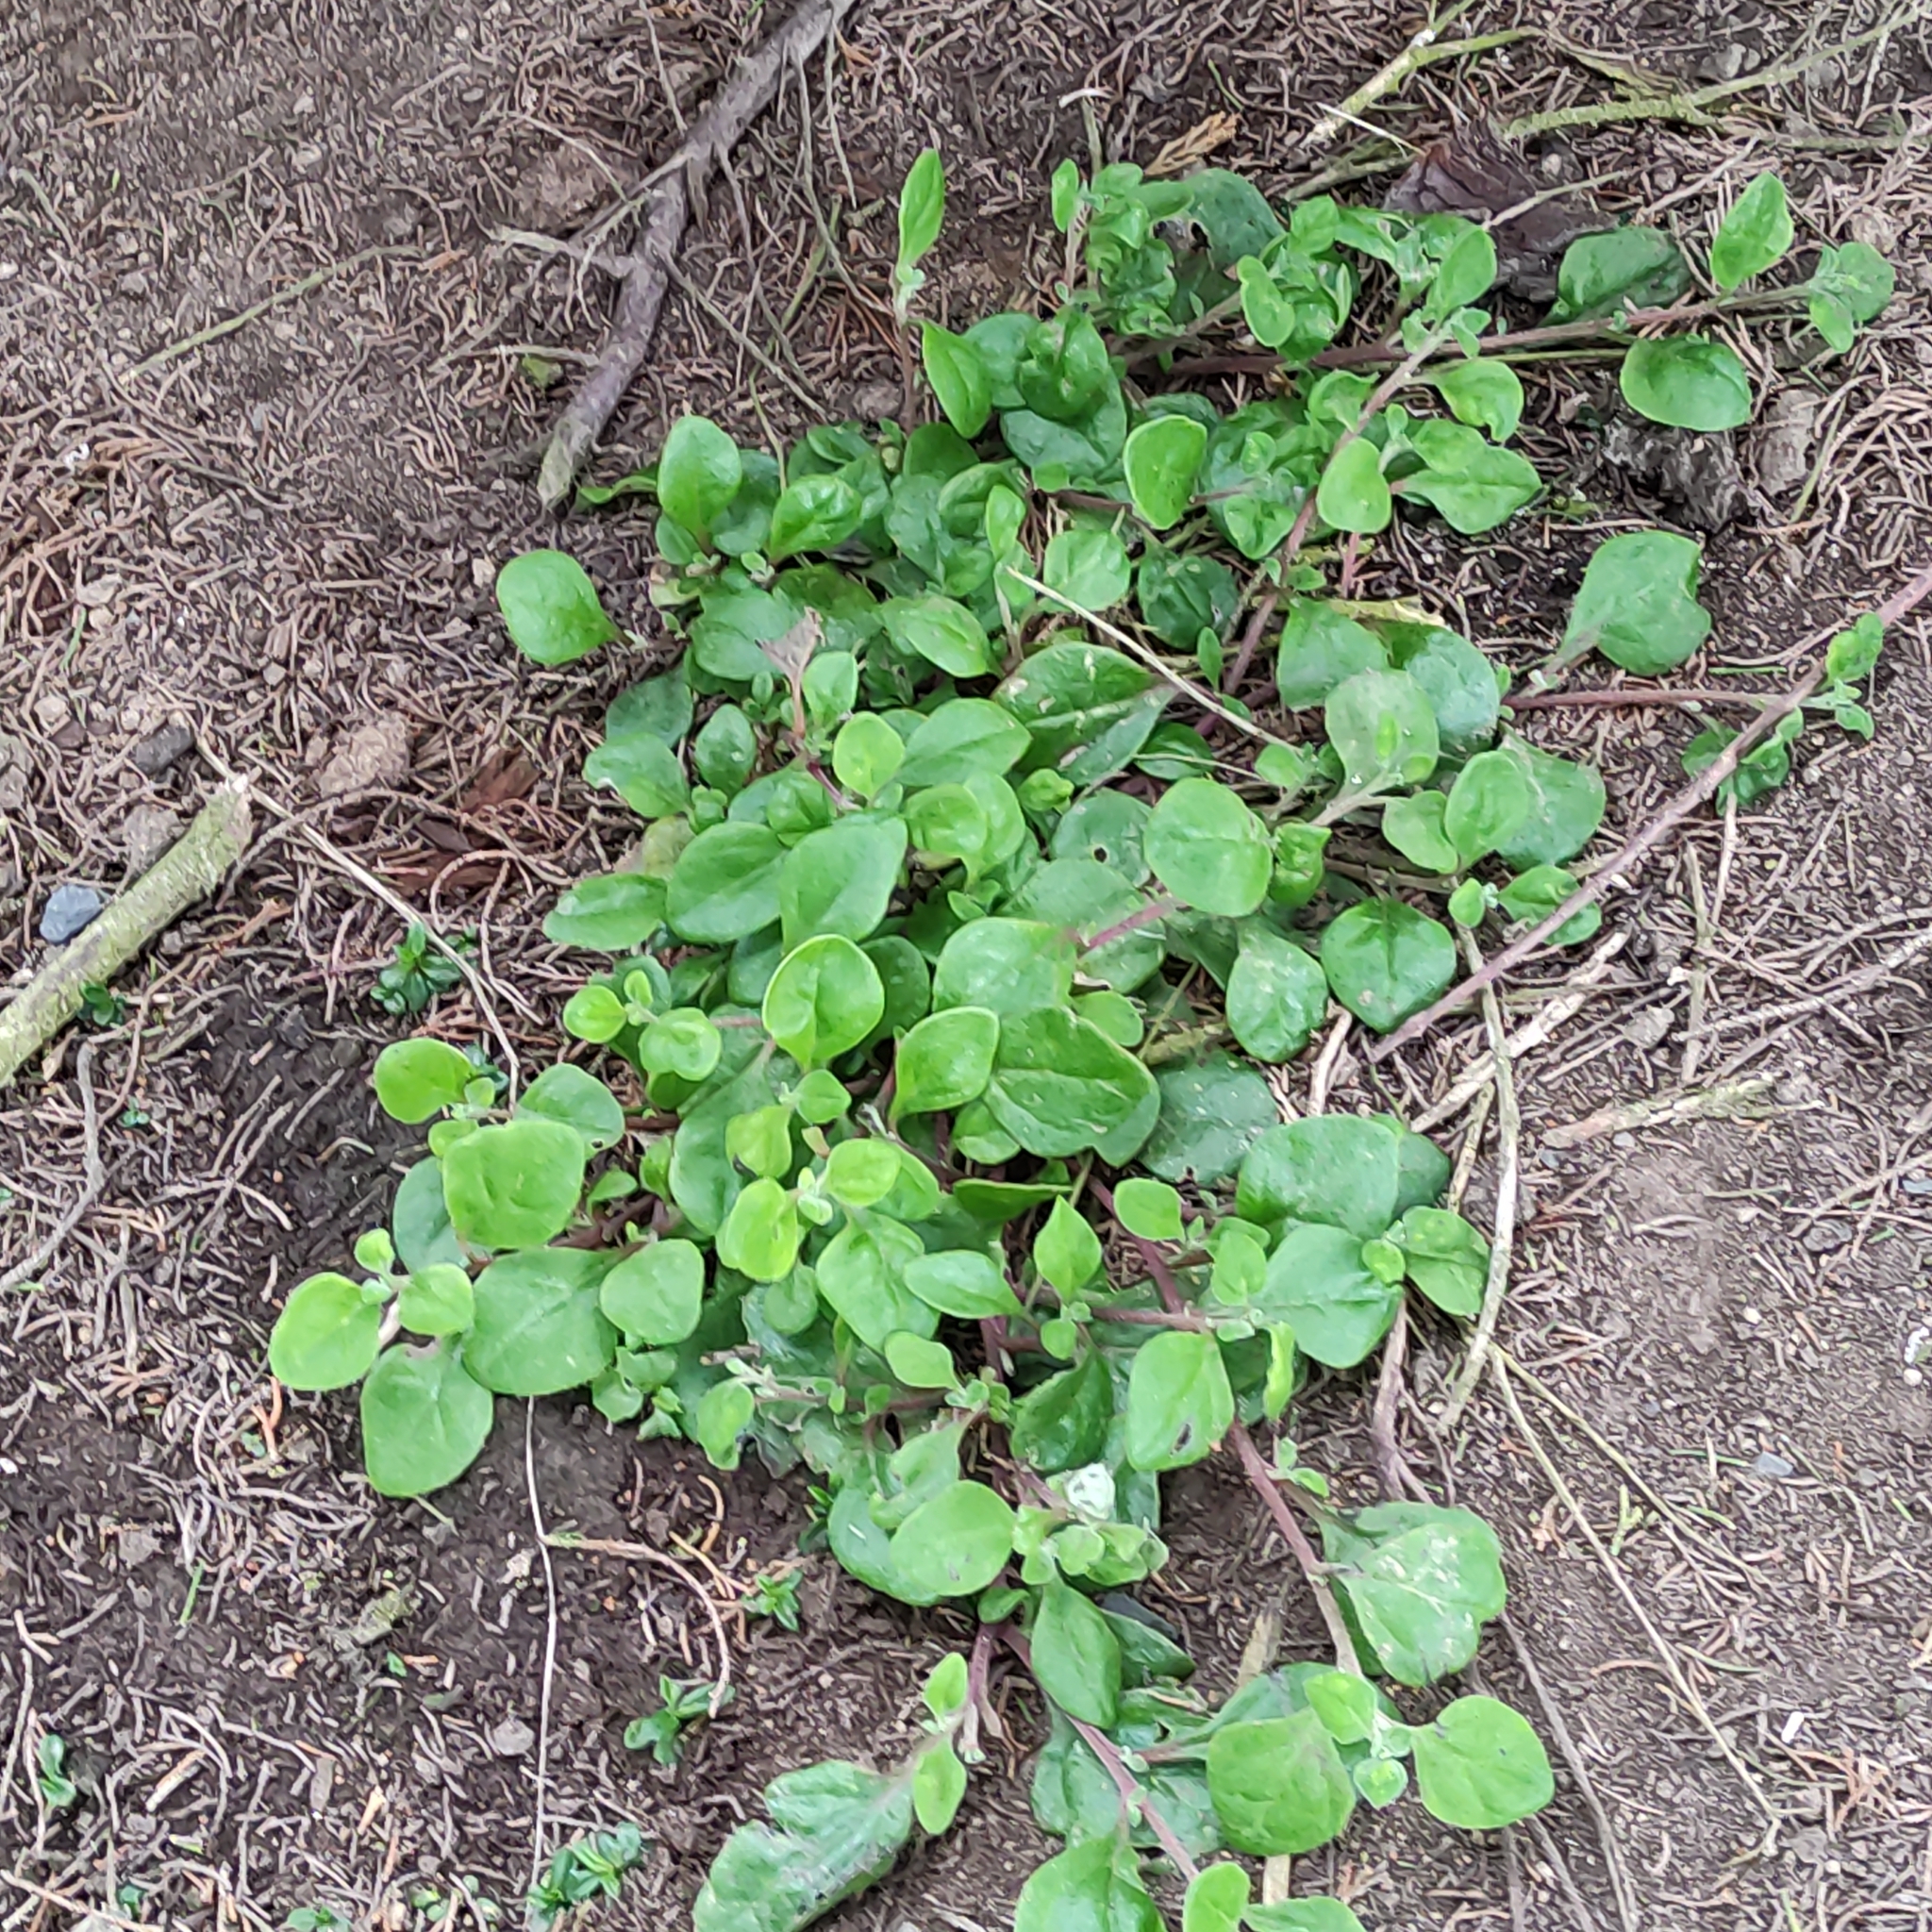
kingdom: Plantae
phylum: Tracheophyta
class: Magnoliopsida
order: Caryophyllales
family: Aizoaceae
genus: Tetragonia
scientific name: Tetragonia implexicoma
